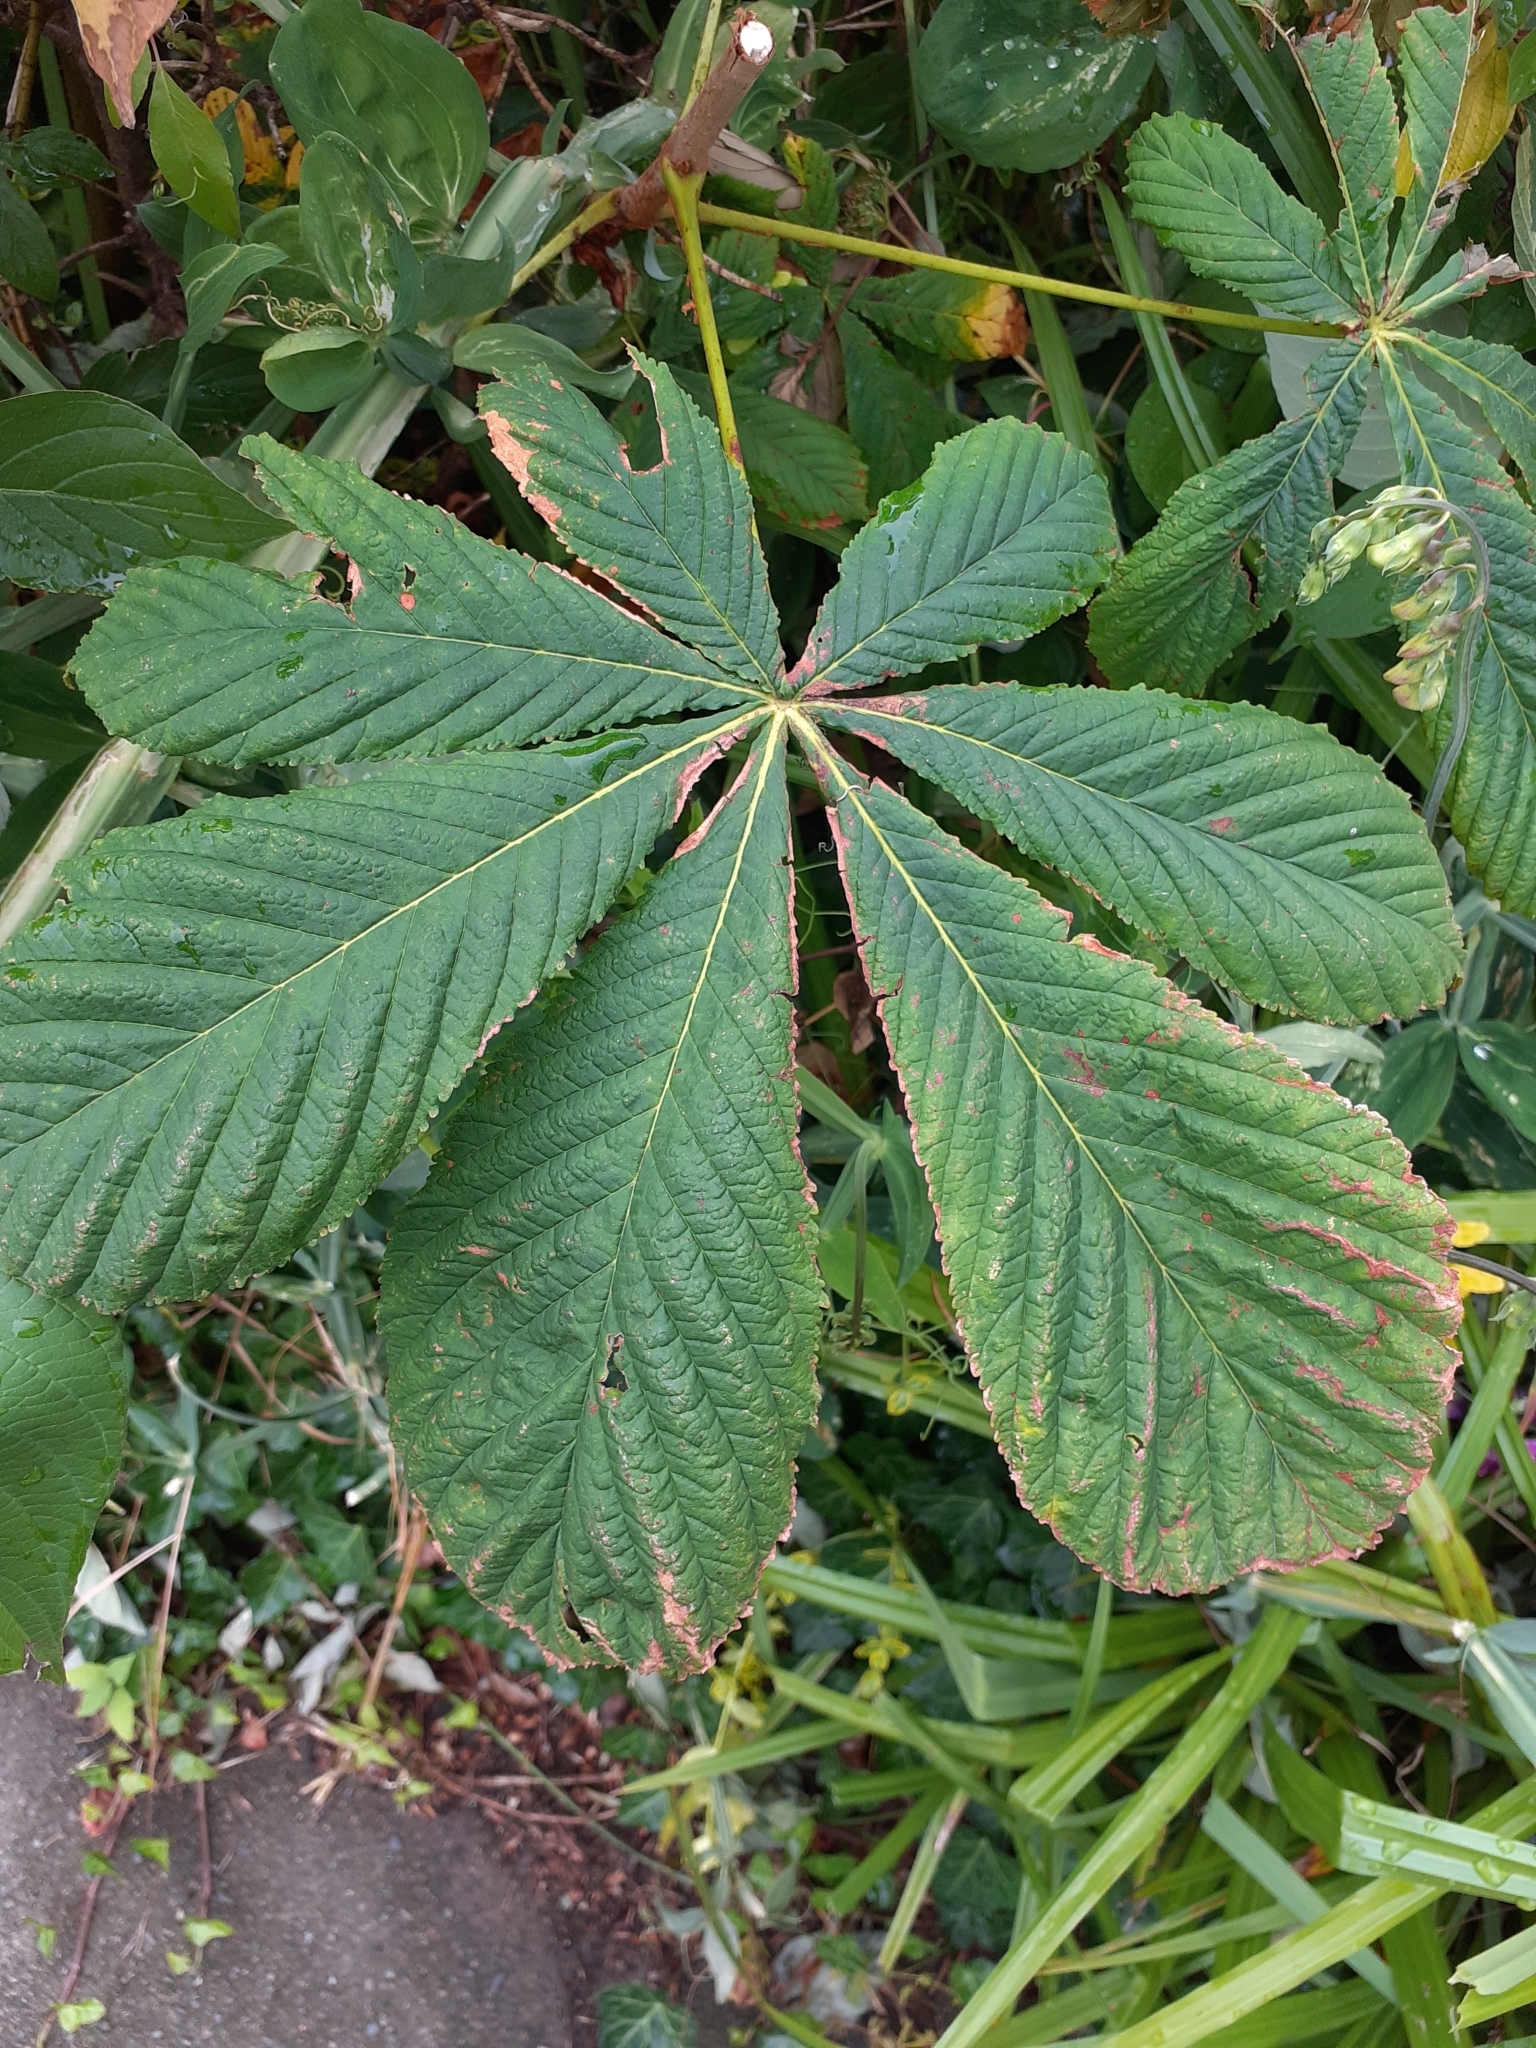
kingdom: Plantae
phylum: Tracheophyta
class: Magnoliopsida
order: Sapindales
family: Sapindaceae
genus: Aesculus
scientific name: Aesculus hippocastanum
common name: Horse-chestnut
